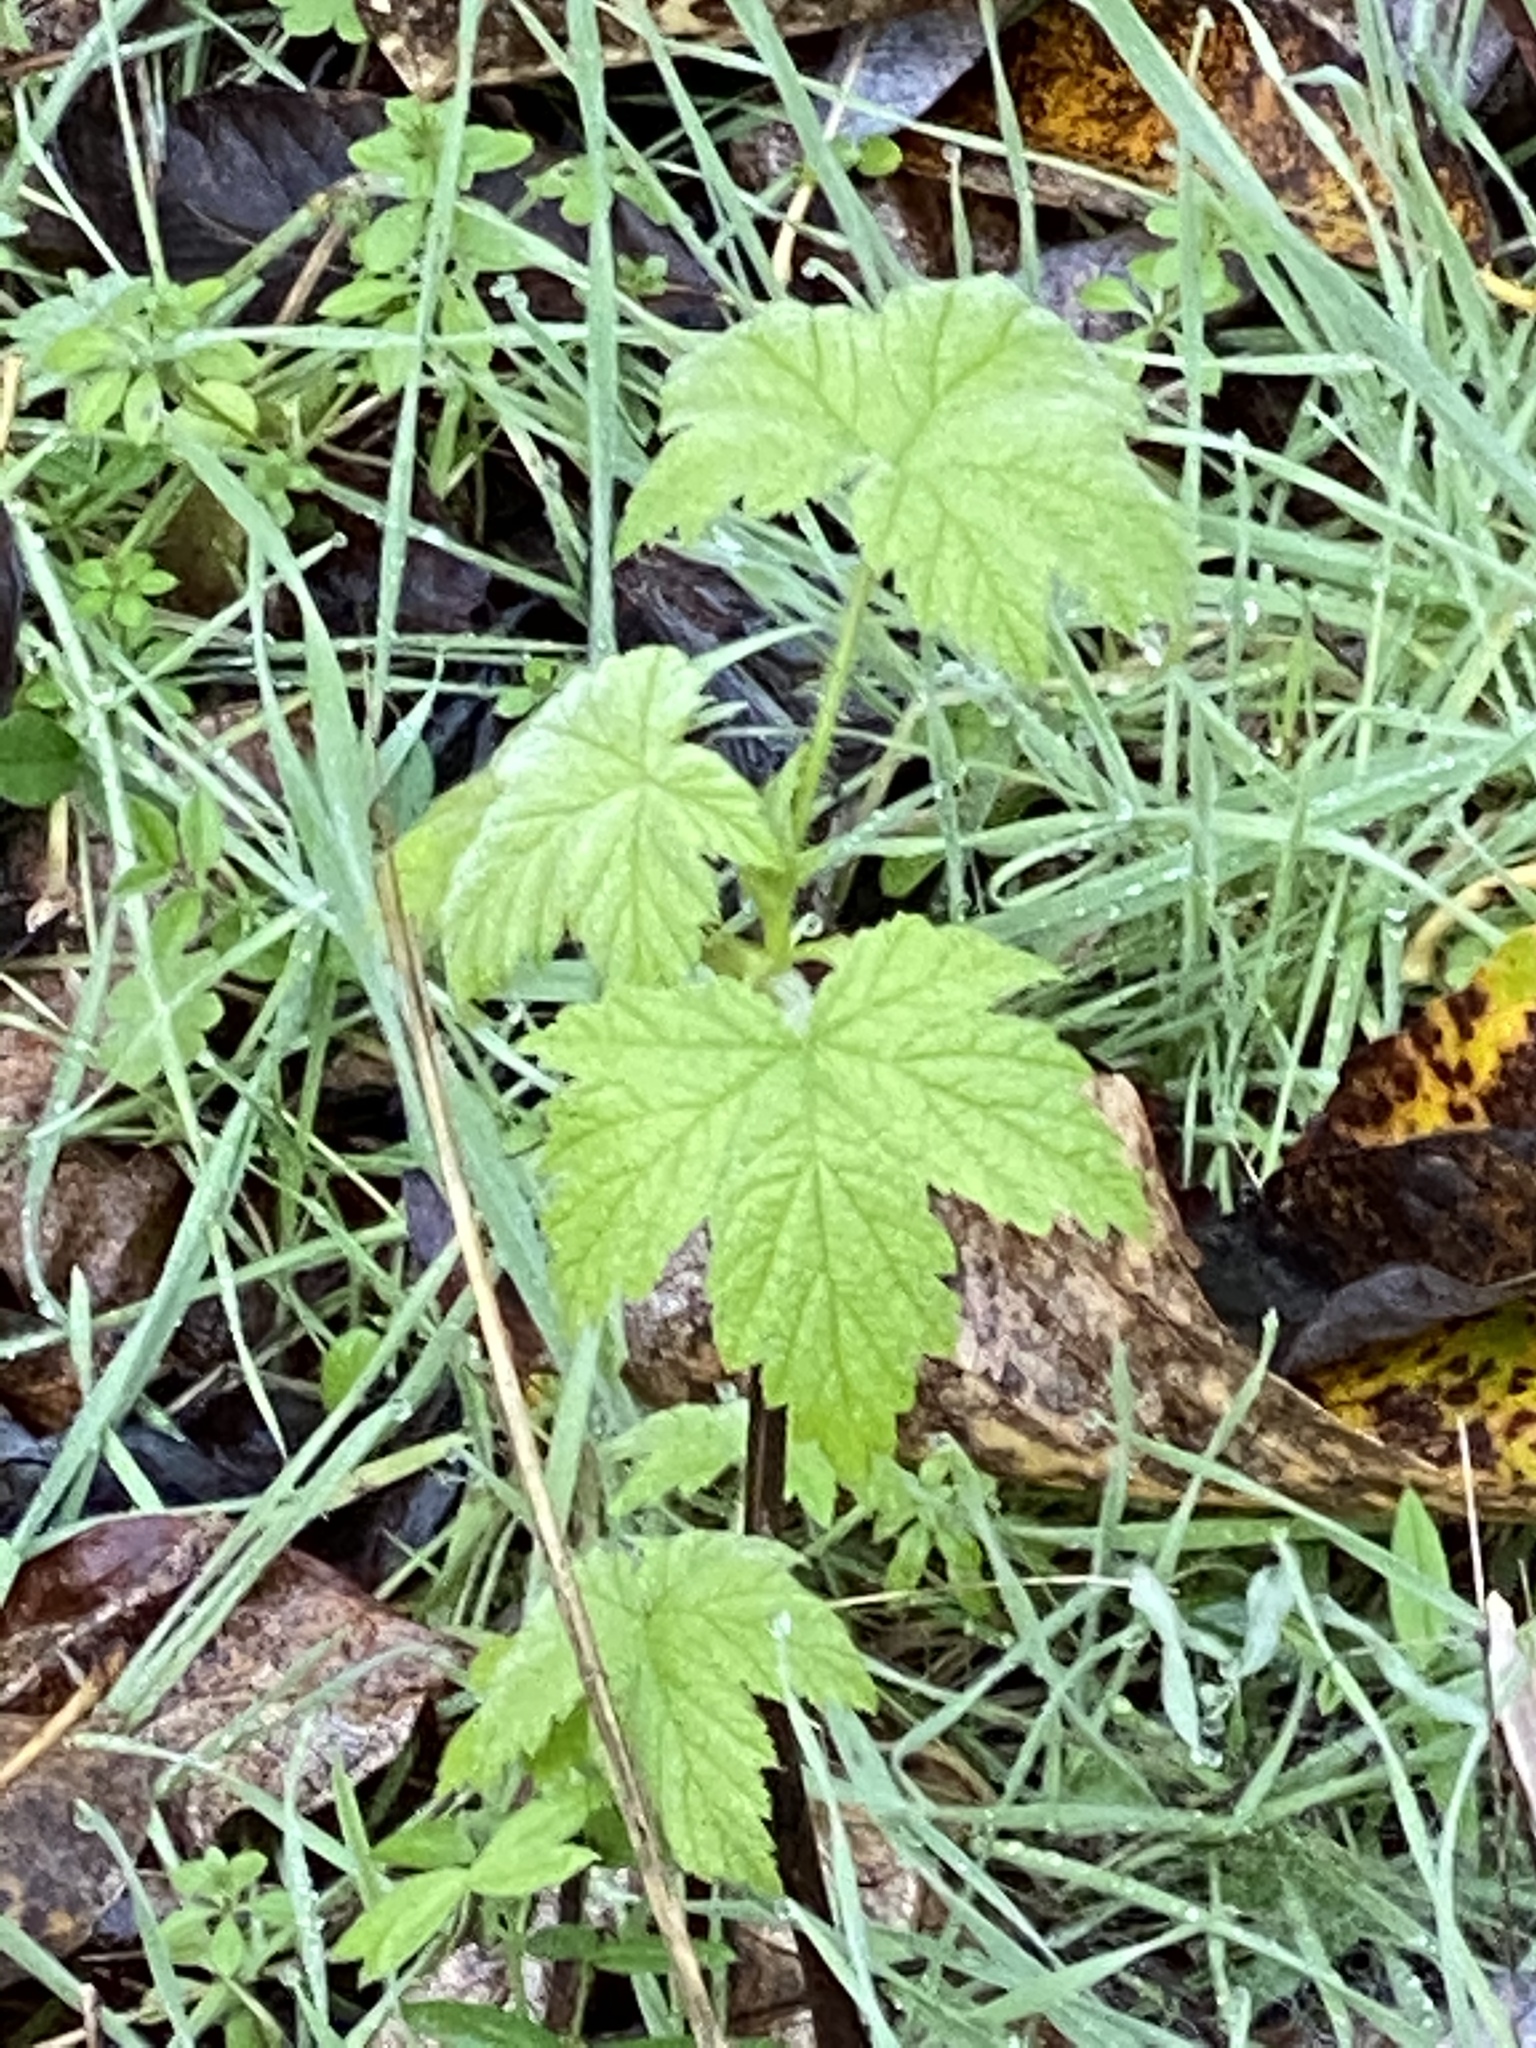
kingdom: Plantae
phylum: Tracheophyta
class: Magnoliopsida
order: Rosales
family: Rosaceae
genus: Rubus
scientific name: Rubus parviflorus
